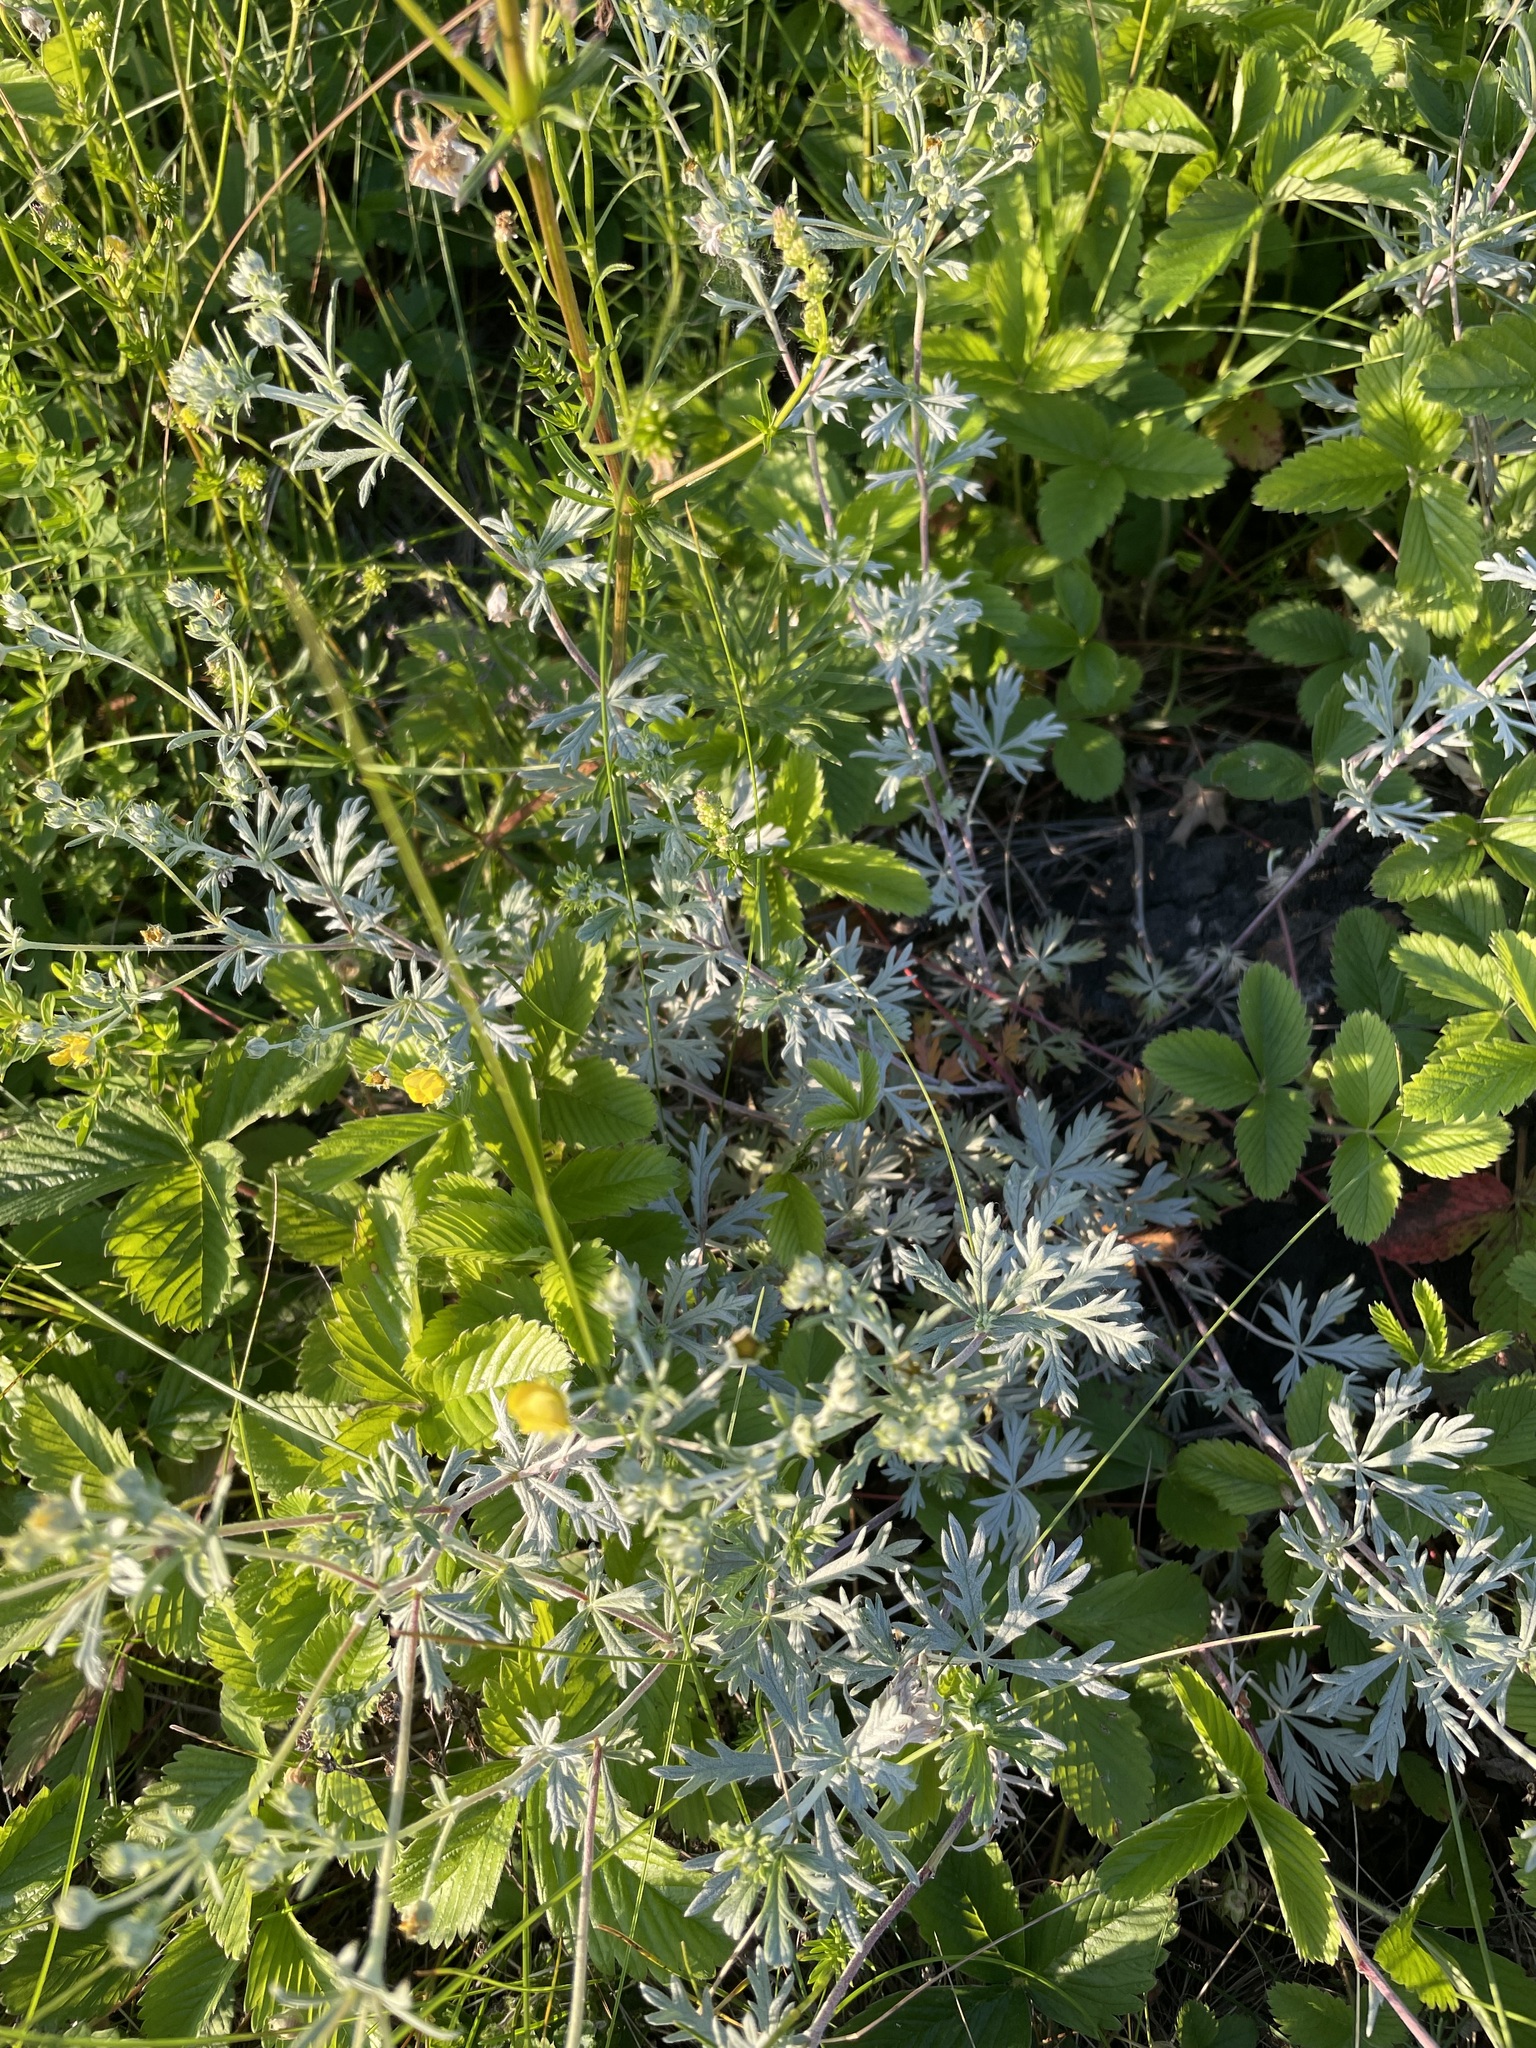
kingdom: Plantae
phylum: Tracheophyta
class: Magnoliopsida
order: Rosales
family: Rosaceae
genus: Potentilla
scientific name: Potentilla argentea
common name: Hoary cinquefoil
